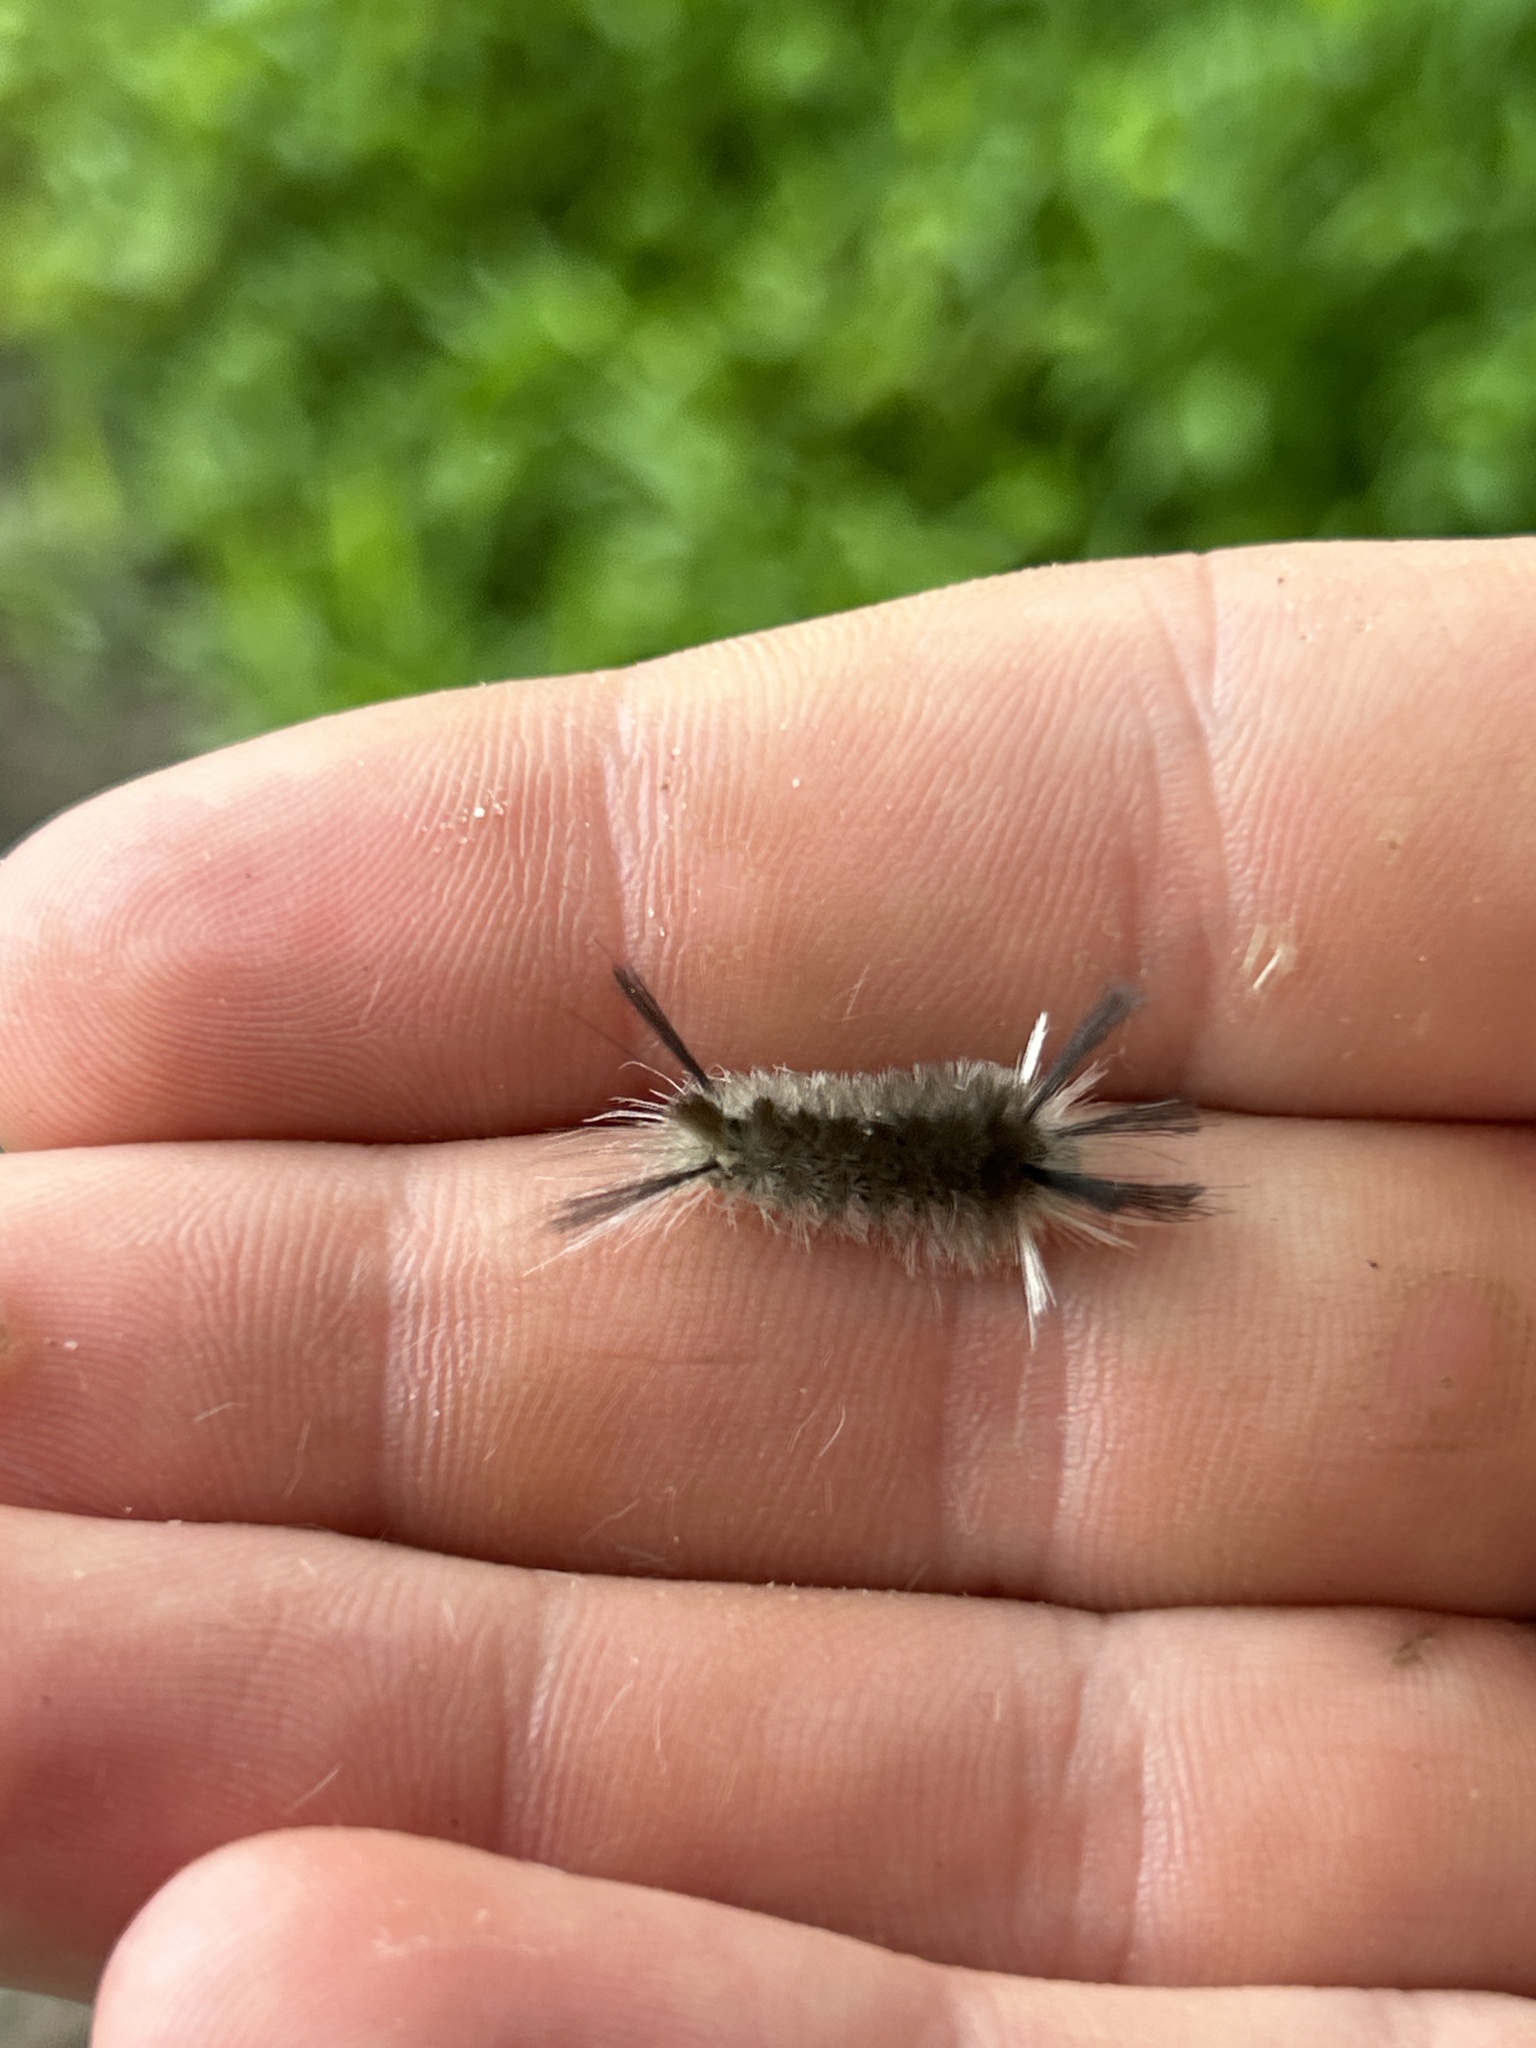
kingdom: Animalia
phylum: Arthropoda
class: Insecta
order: Lepidoptera
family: Erebidae
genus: Halysidota
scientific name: Halysidota tessellaris
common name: Banded tussock moth
